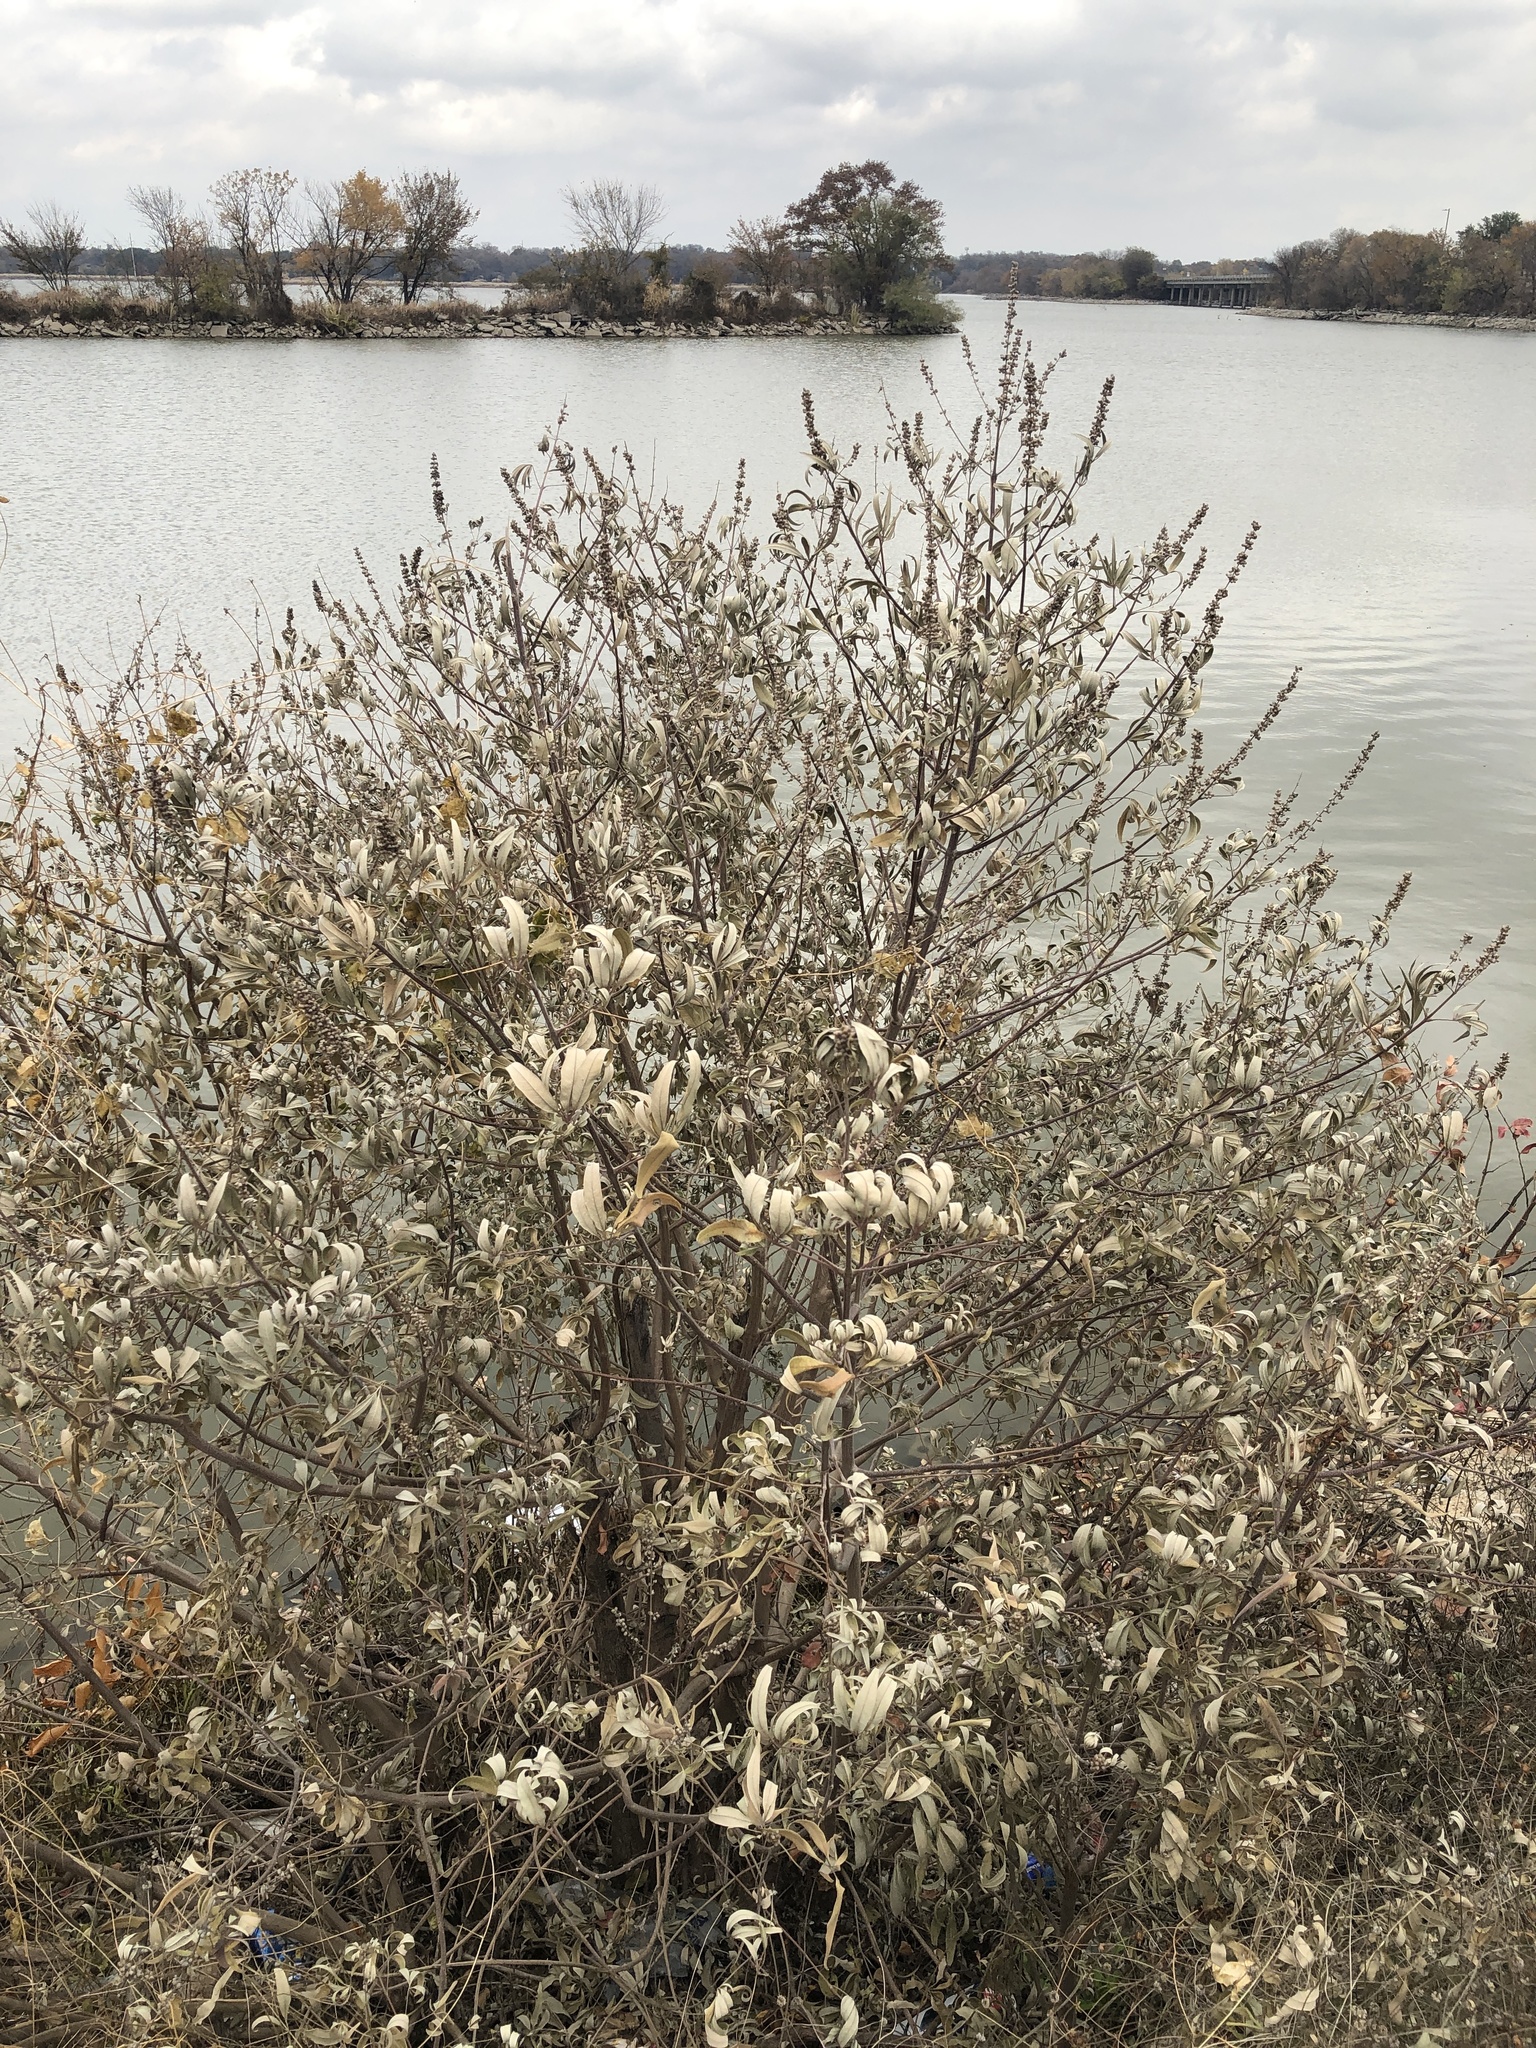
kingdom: Plantae
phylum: Tracheophyta
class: Magnoliopsida
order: Lamiales
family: Lamiaceae
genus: Vitex
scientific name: Vitex agnus-castus
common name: Chasteberry
